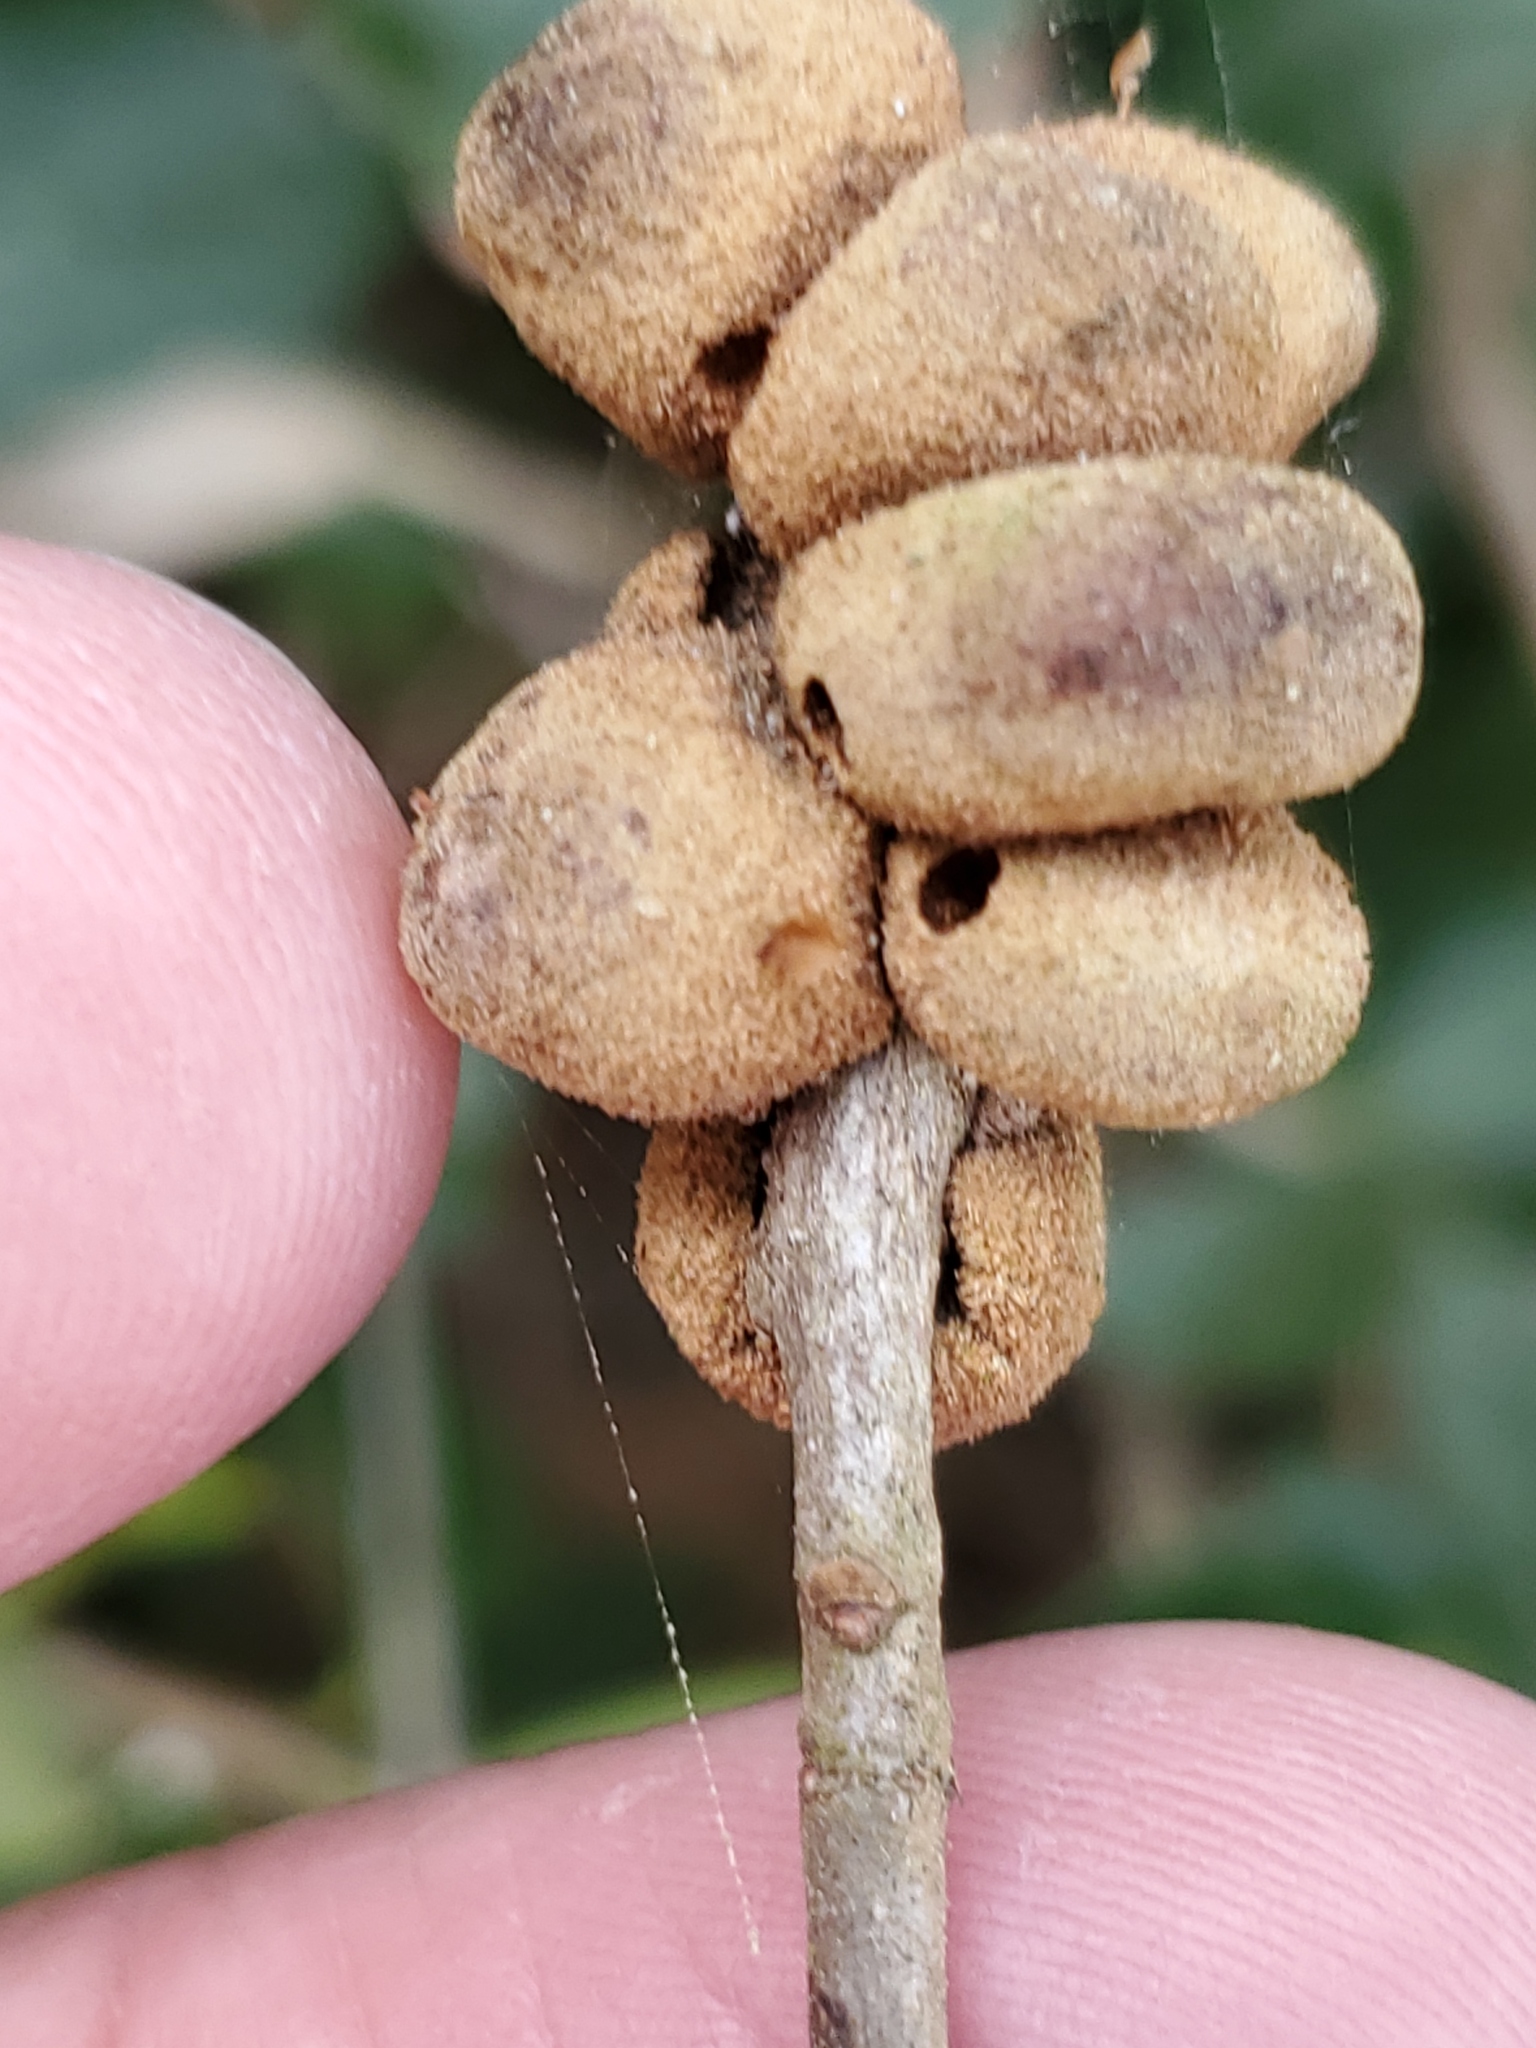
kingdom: Animalia
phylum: Arthropoda
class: Insecta
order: Hymenoptera
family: Cynipidae
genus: Disholcaspis
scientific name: Disholcaspis
